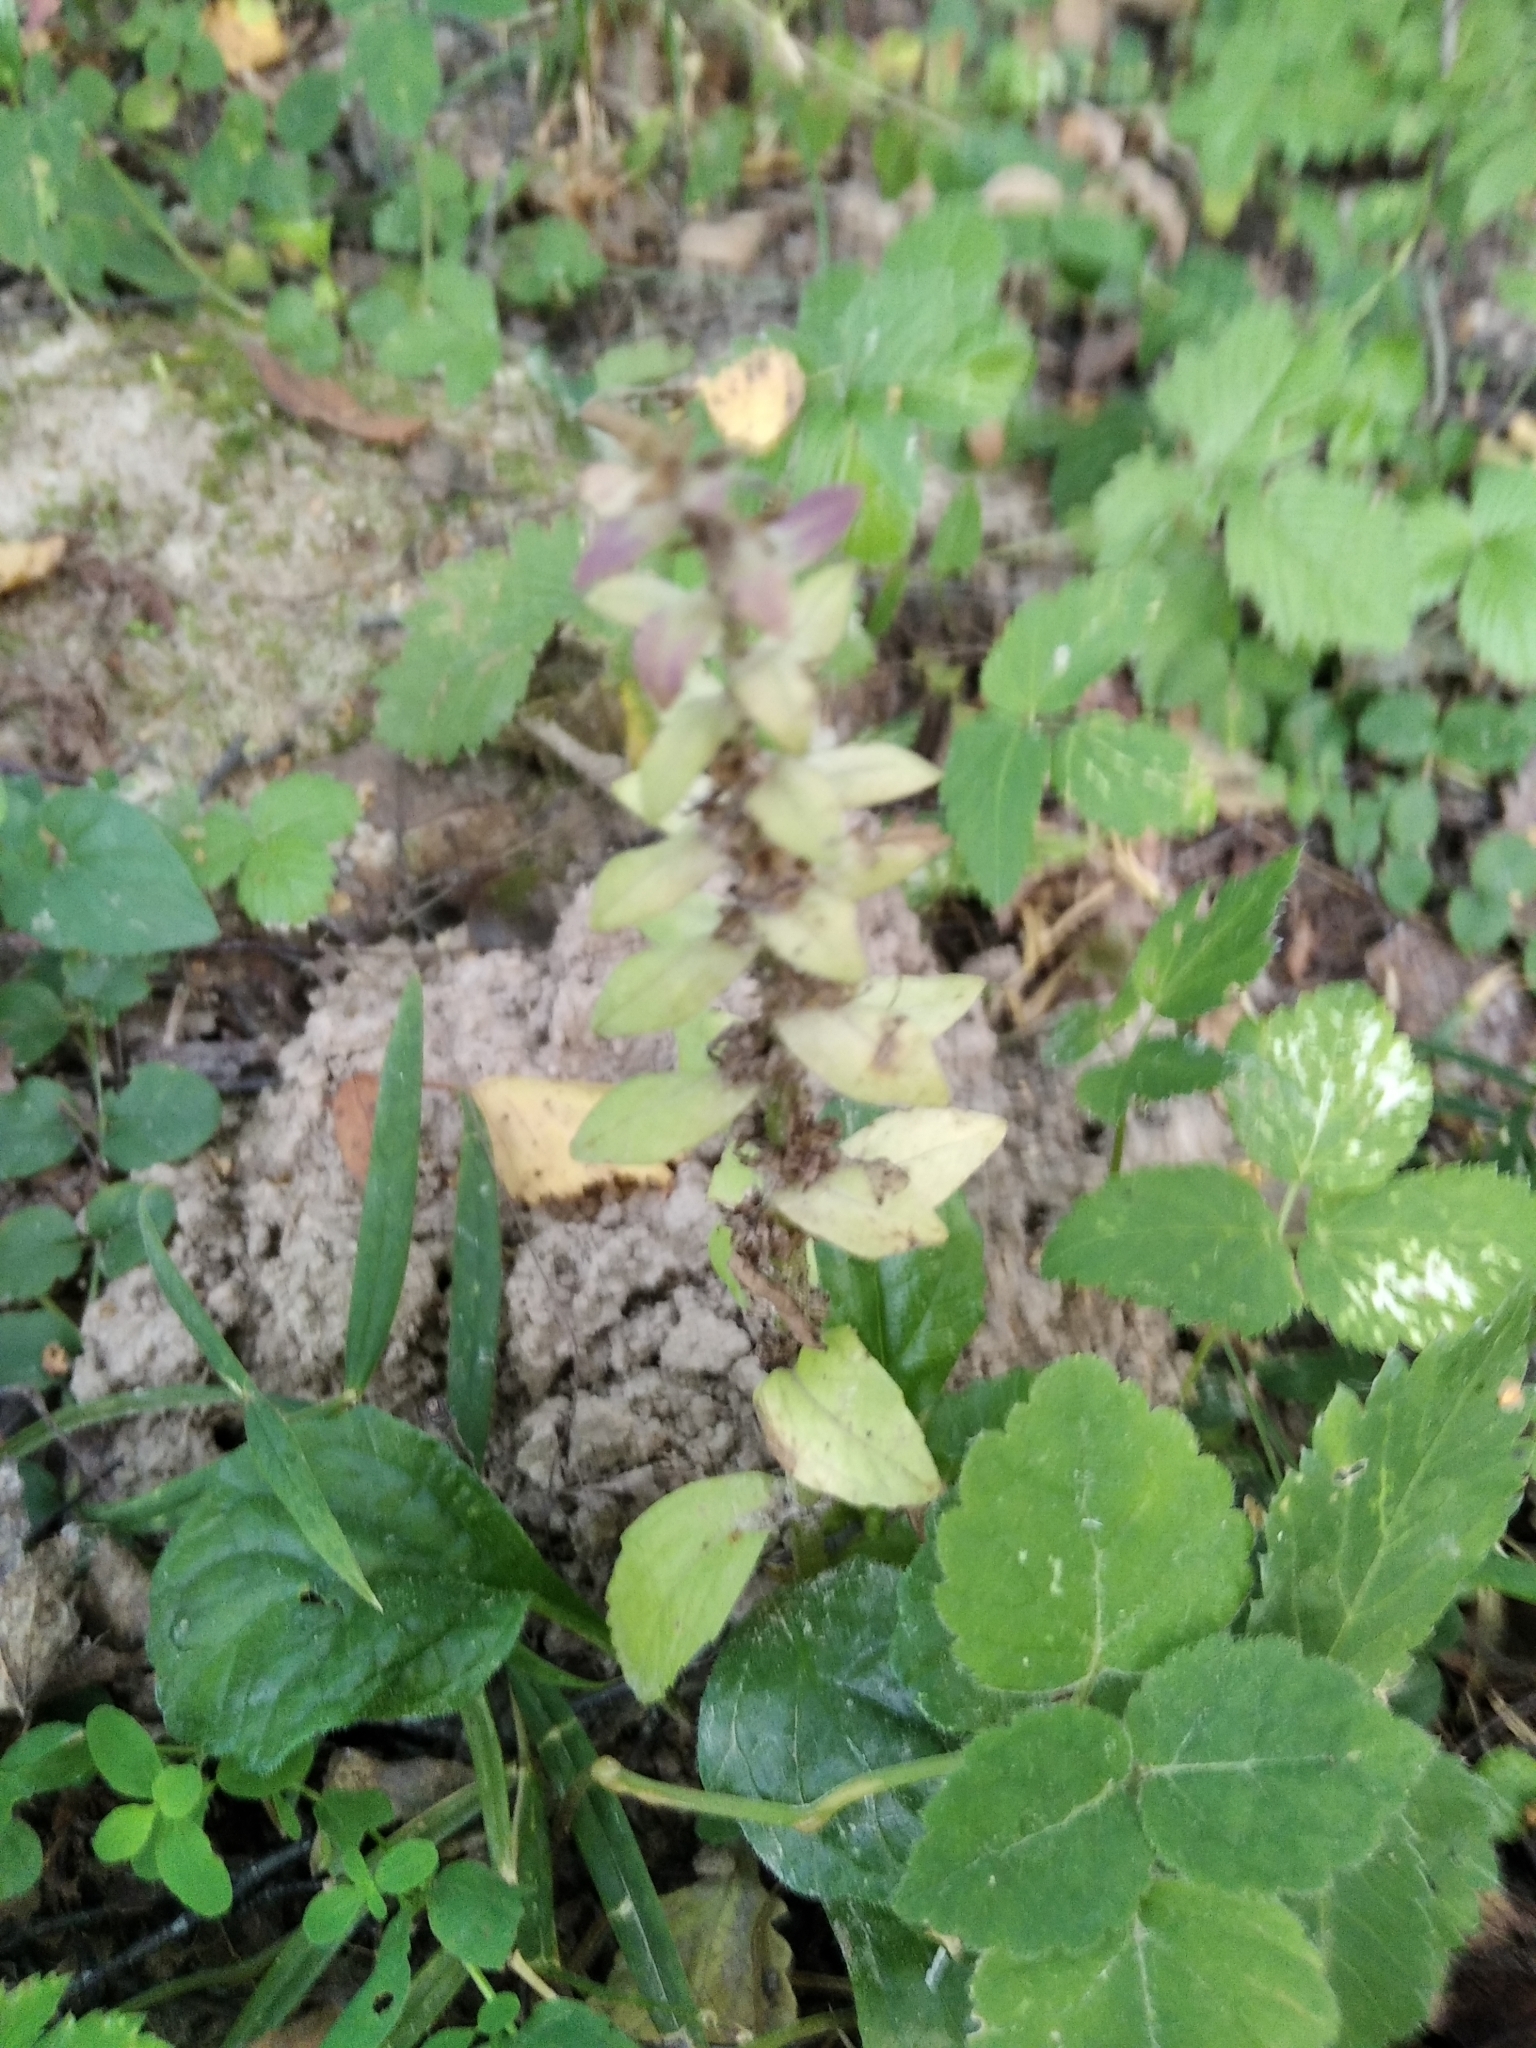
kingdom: Plantae
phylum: Tracheophyta
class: Magnoliopsida
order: Lamiales
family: Lamiaceae
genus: Ajuga
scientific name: Ajuga reptans
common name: Bugle
